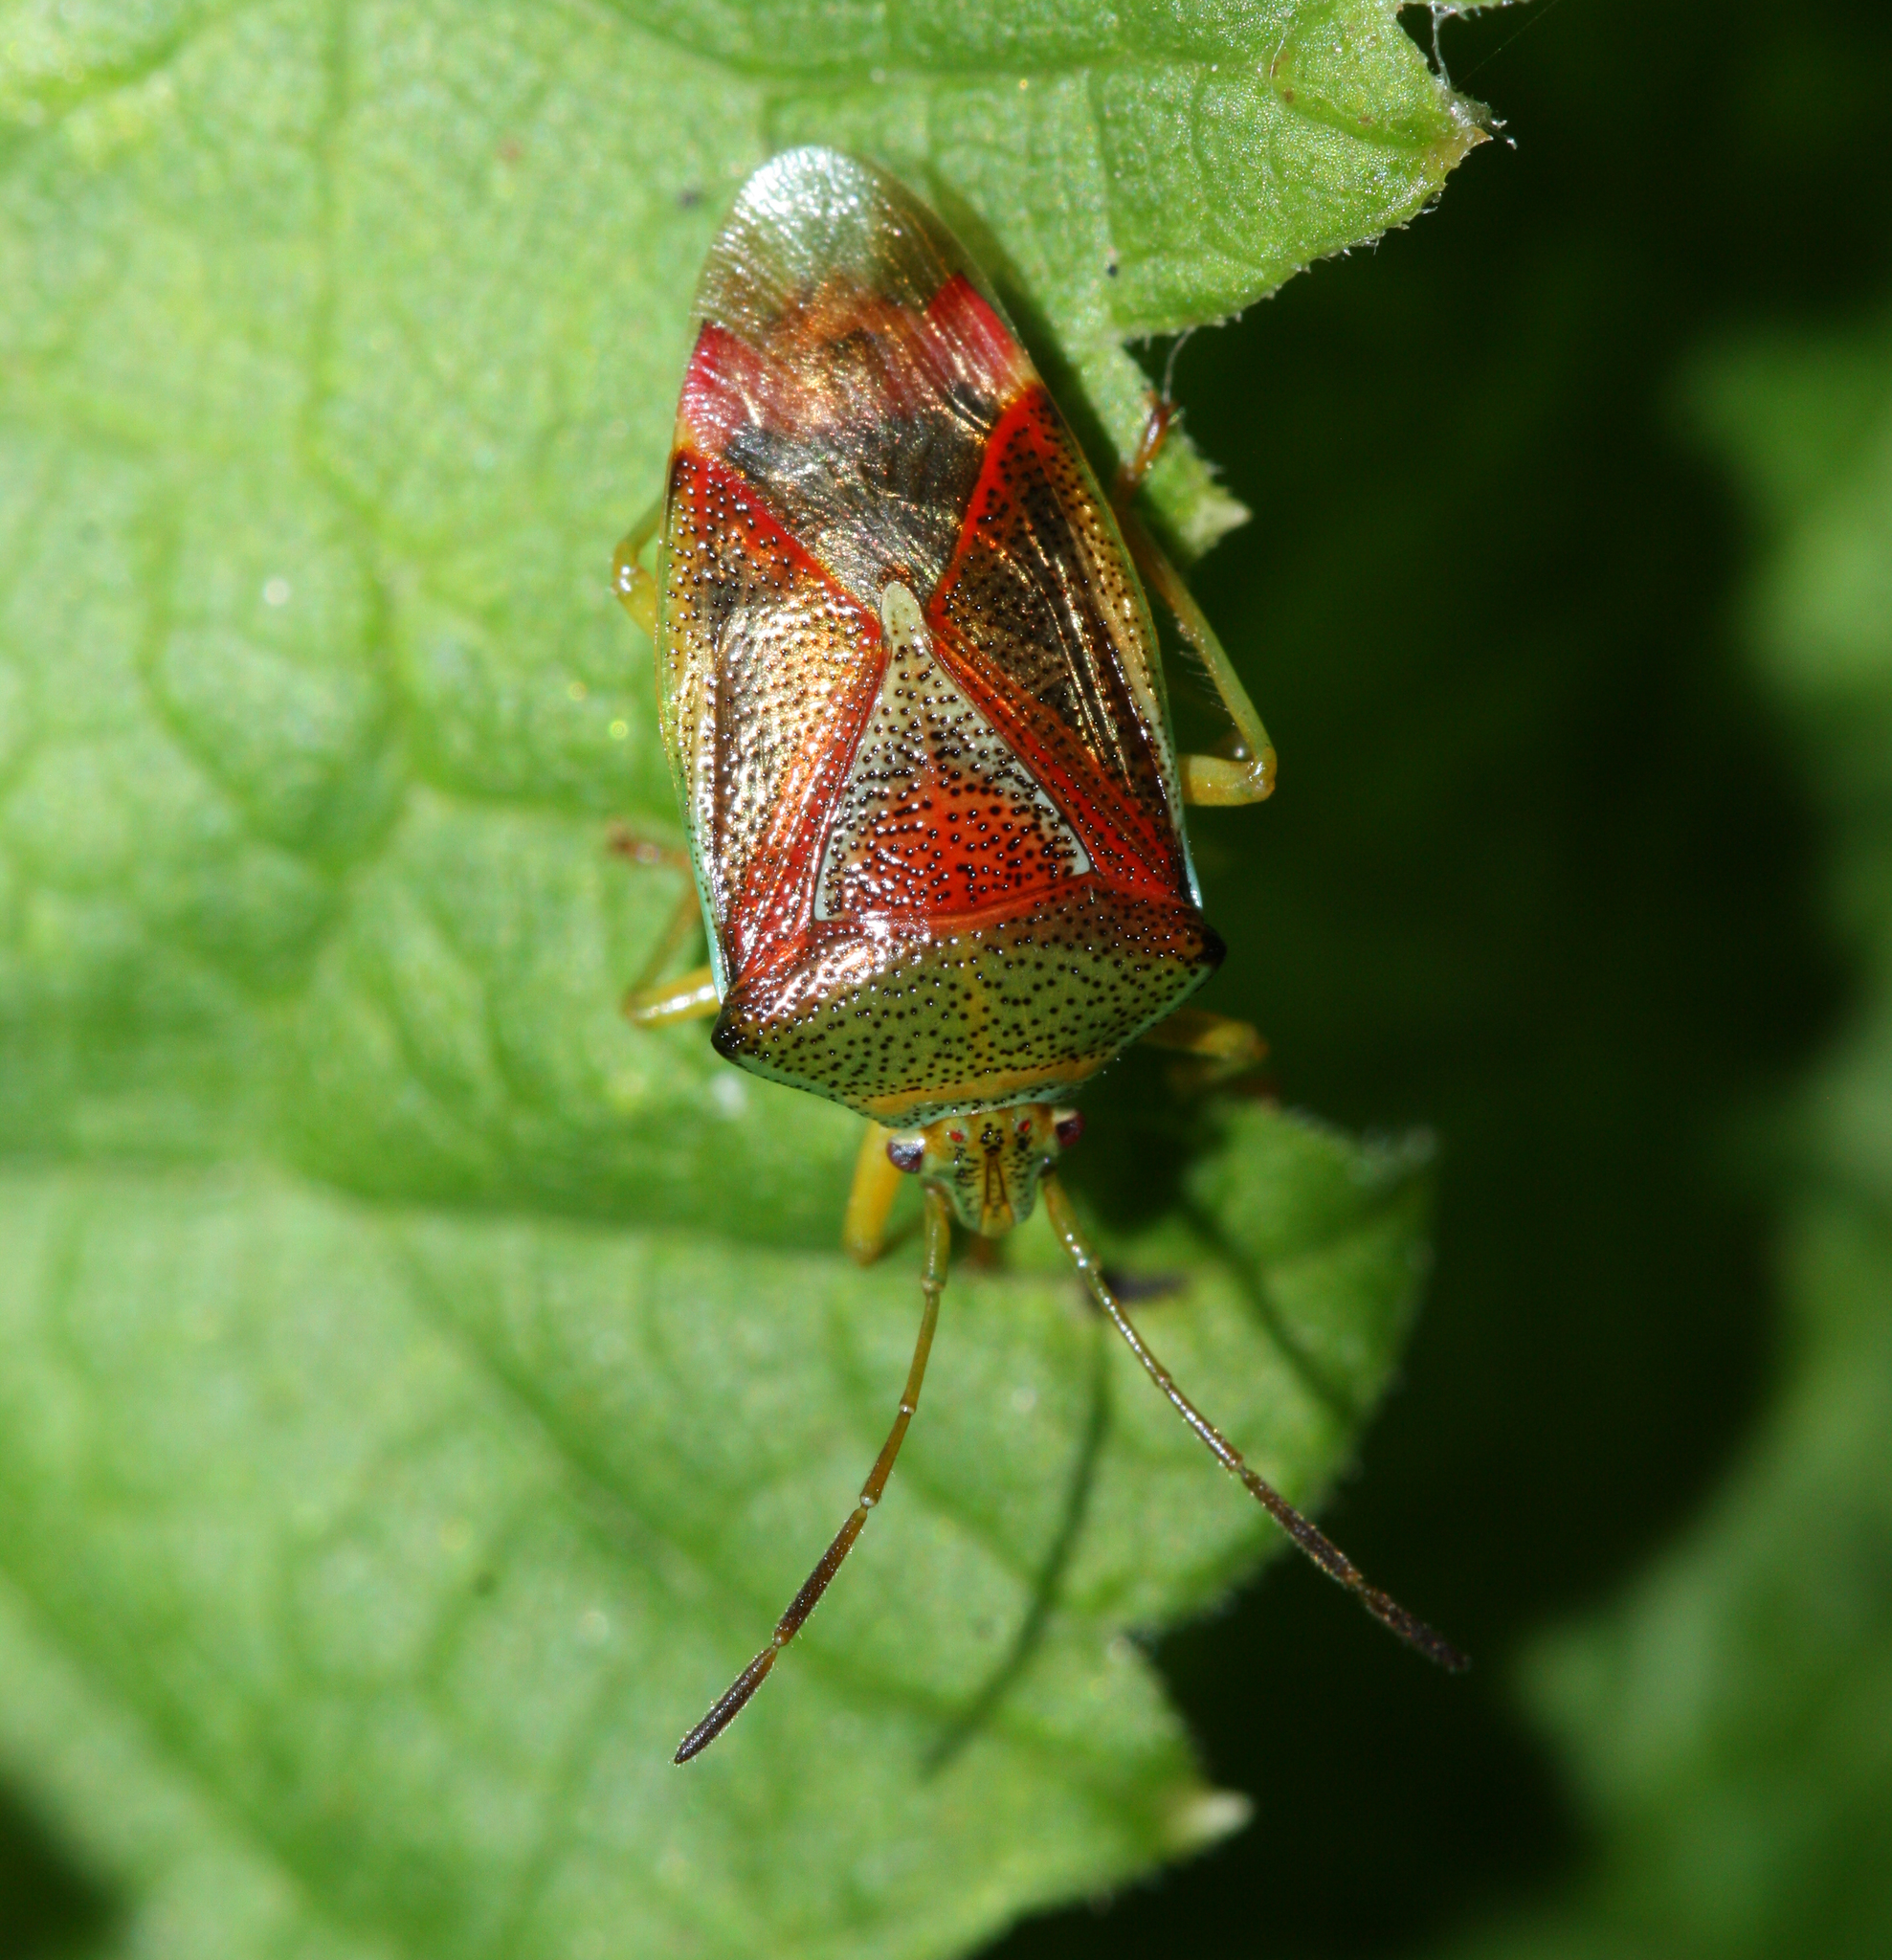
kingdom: Animalia
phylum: Arthropoda
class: Insecta
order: Hemiptera
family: Acanthosomatidae
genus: Elasmostethus
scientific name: Elasmostethus interstinctus
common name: Birch shieldbug
